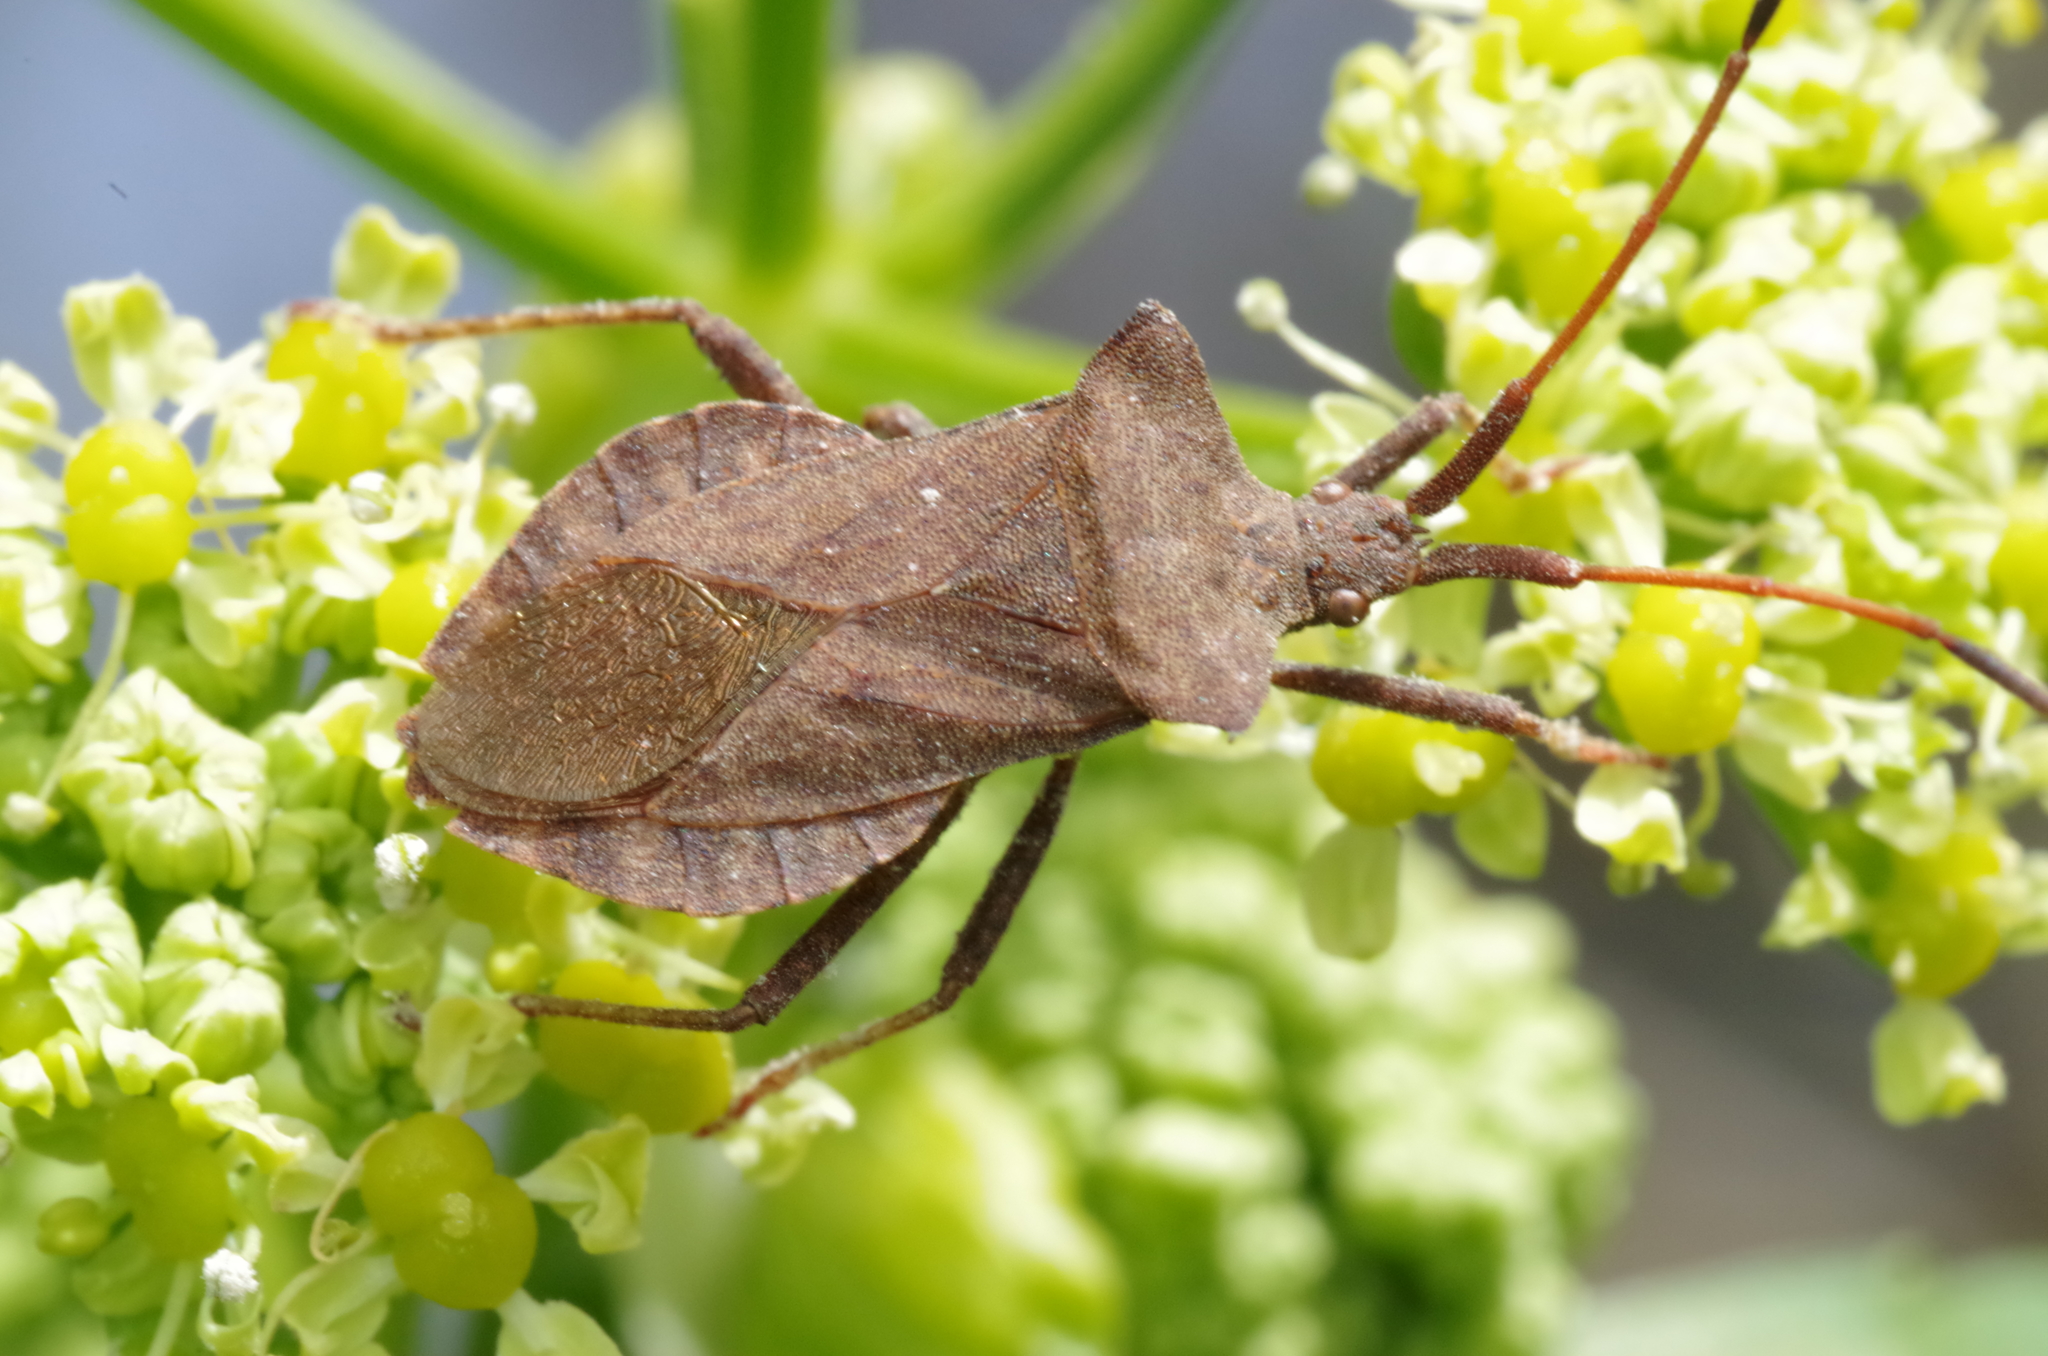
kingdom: Animalia
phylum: Arthropoda
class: Insecta
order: Hemiptera
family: Coreidae
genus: Coreus
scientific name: Coreus marginatus
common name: Dock bug
